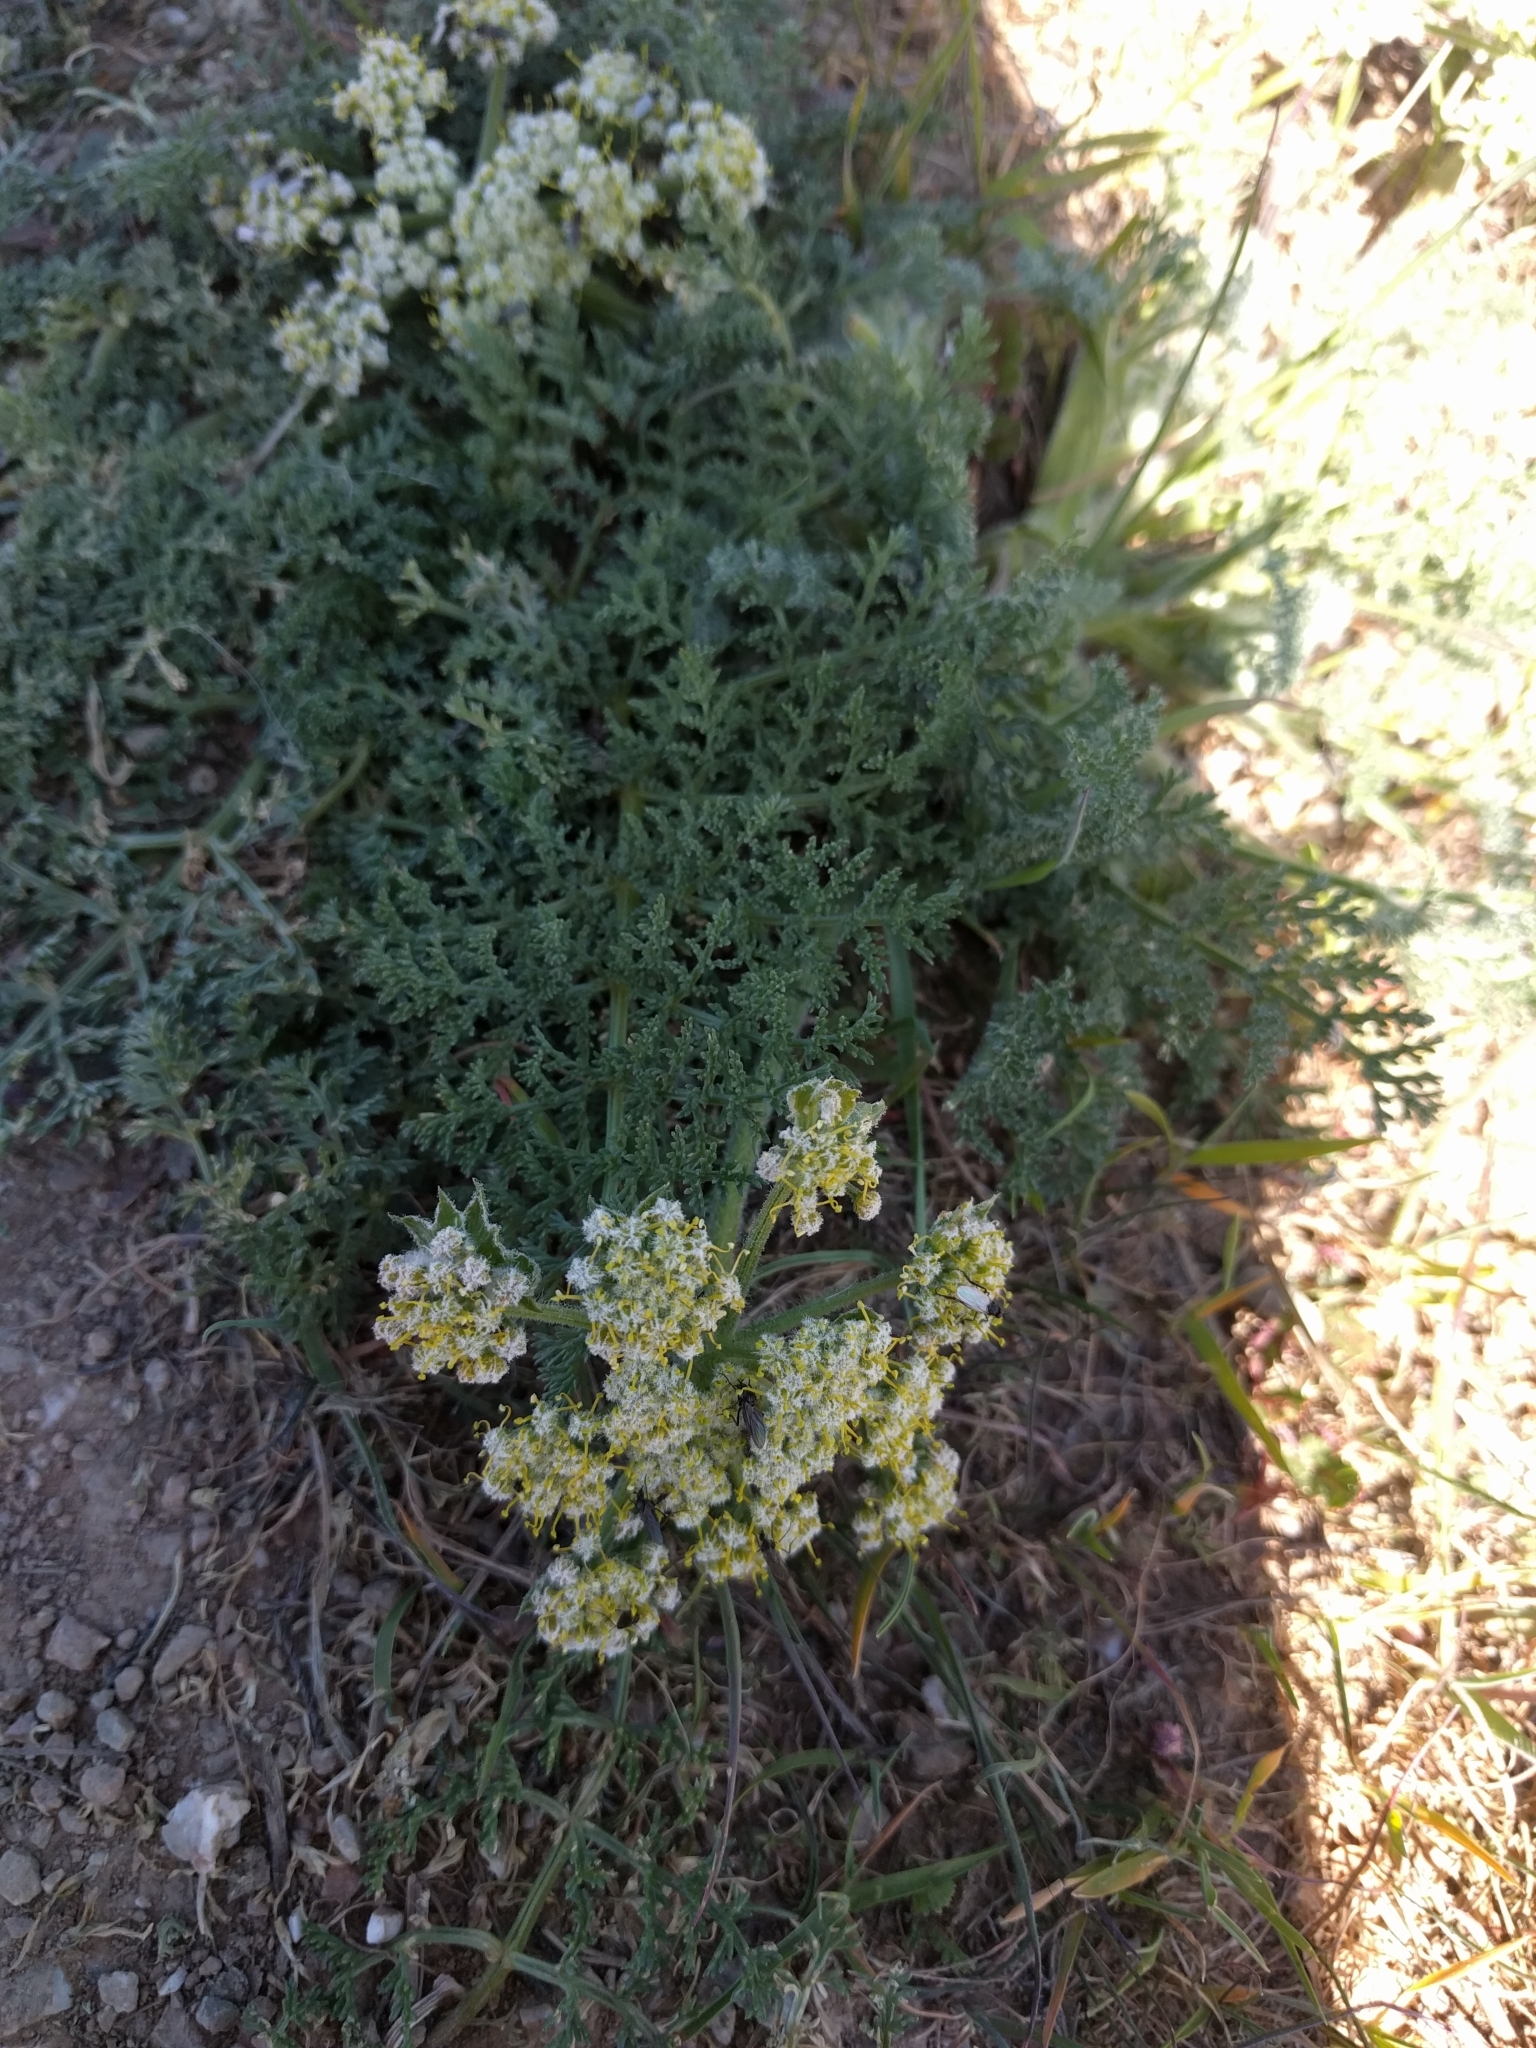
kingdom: Plantae
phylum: Tracheophyta
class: Magnoliopsida
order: Apiales
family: Apiaceae
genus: Lomatium
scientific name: Lomatium dasycarpum
